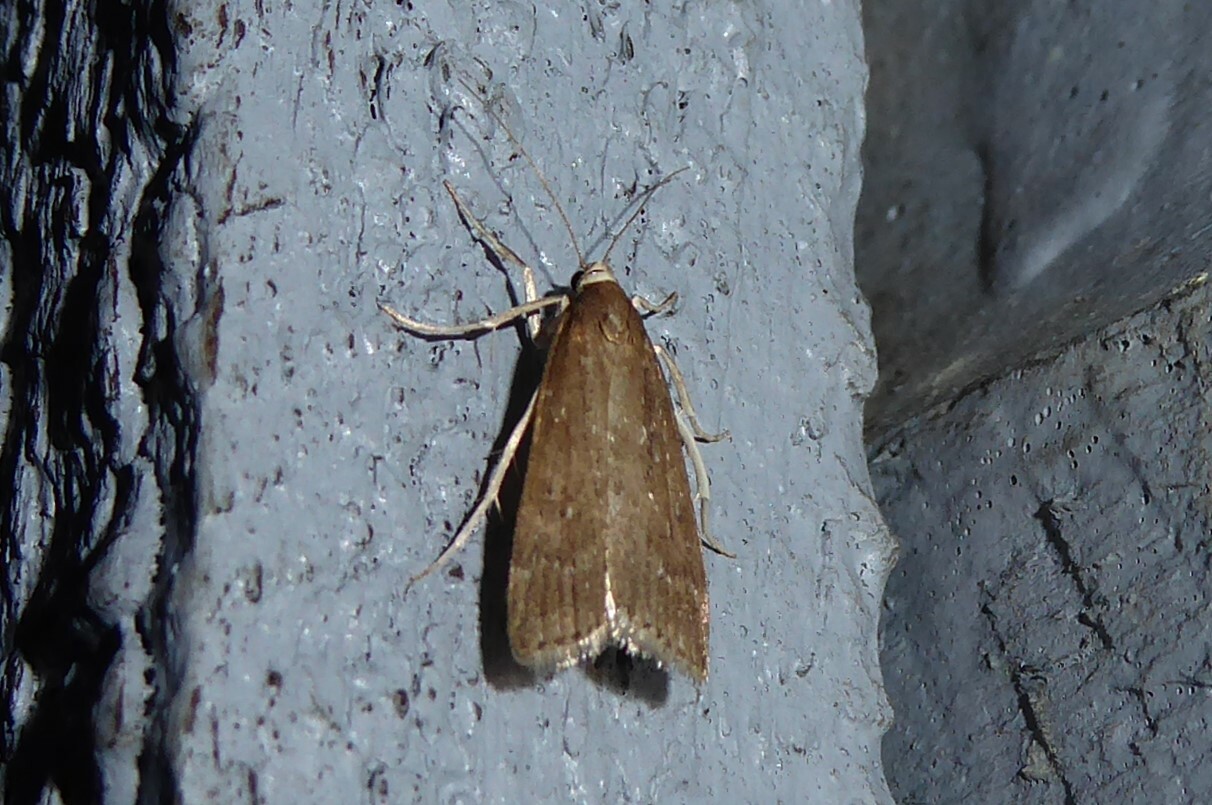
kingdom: Animalia
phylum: Arthropoda
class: Insecta
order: Lepidoptera
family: Crambidae
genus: Eudonia
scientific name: Eudonia octophora
